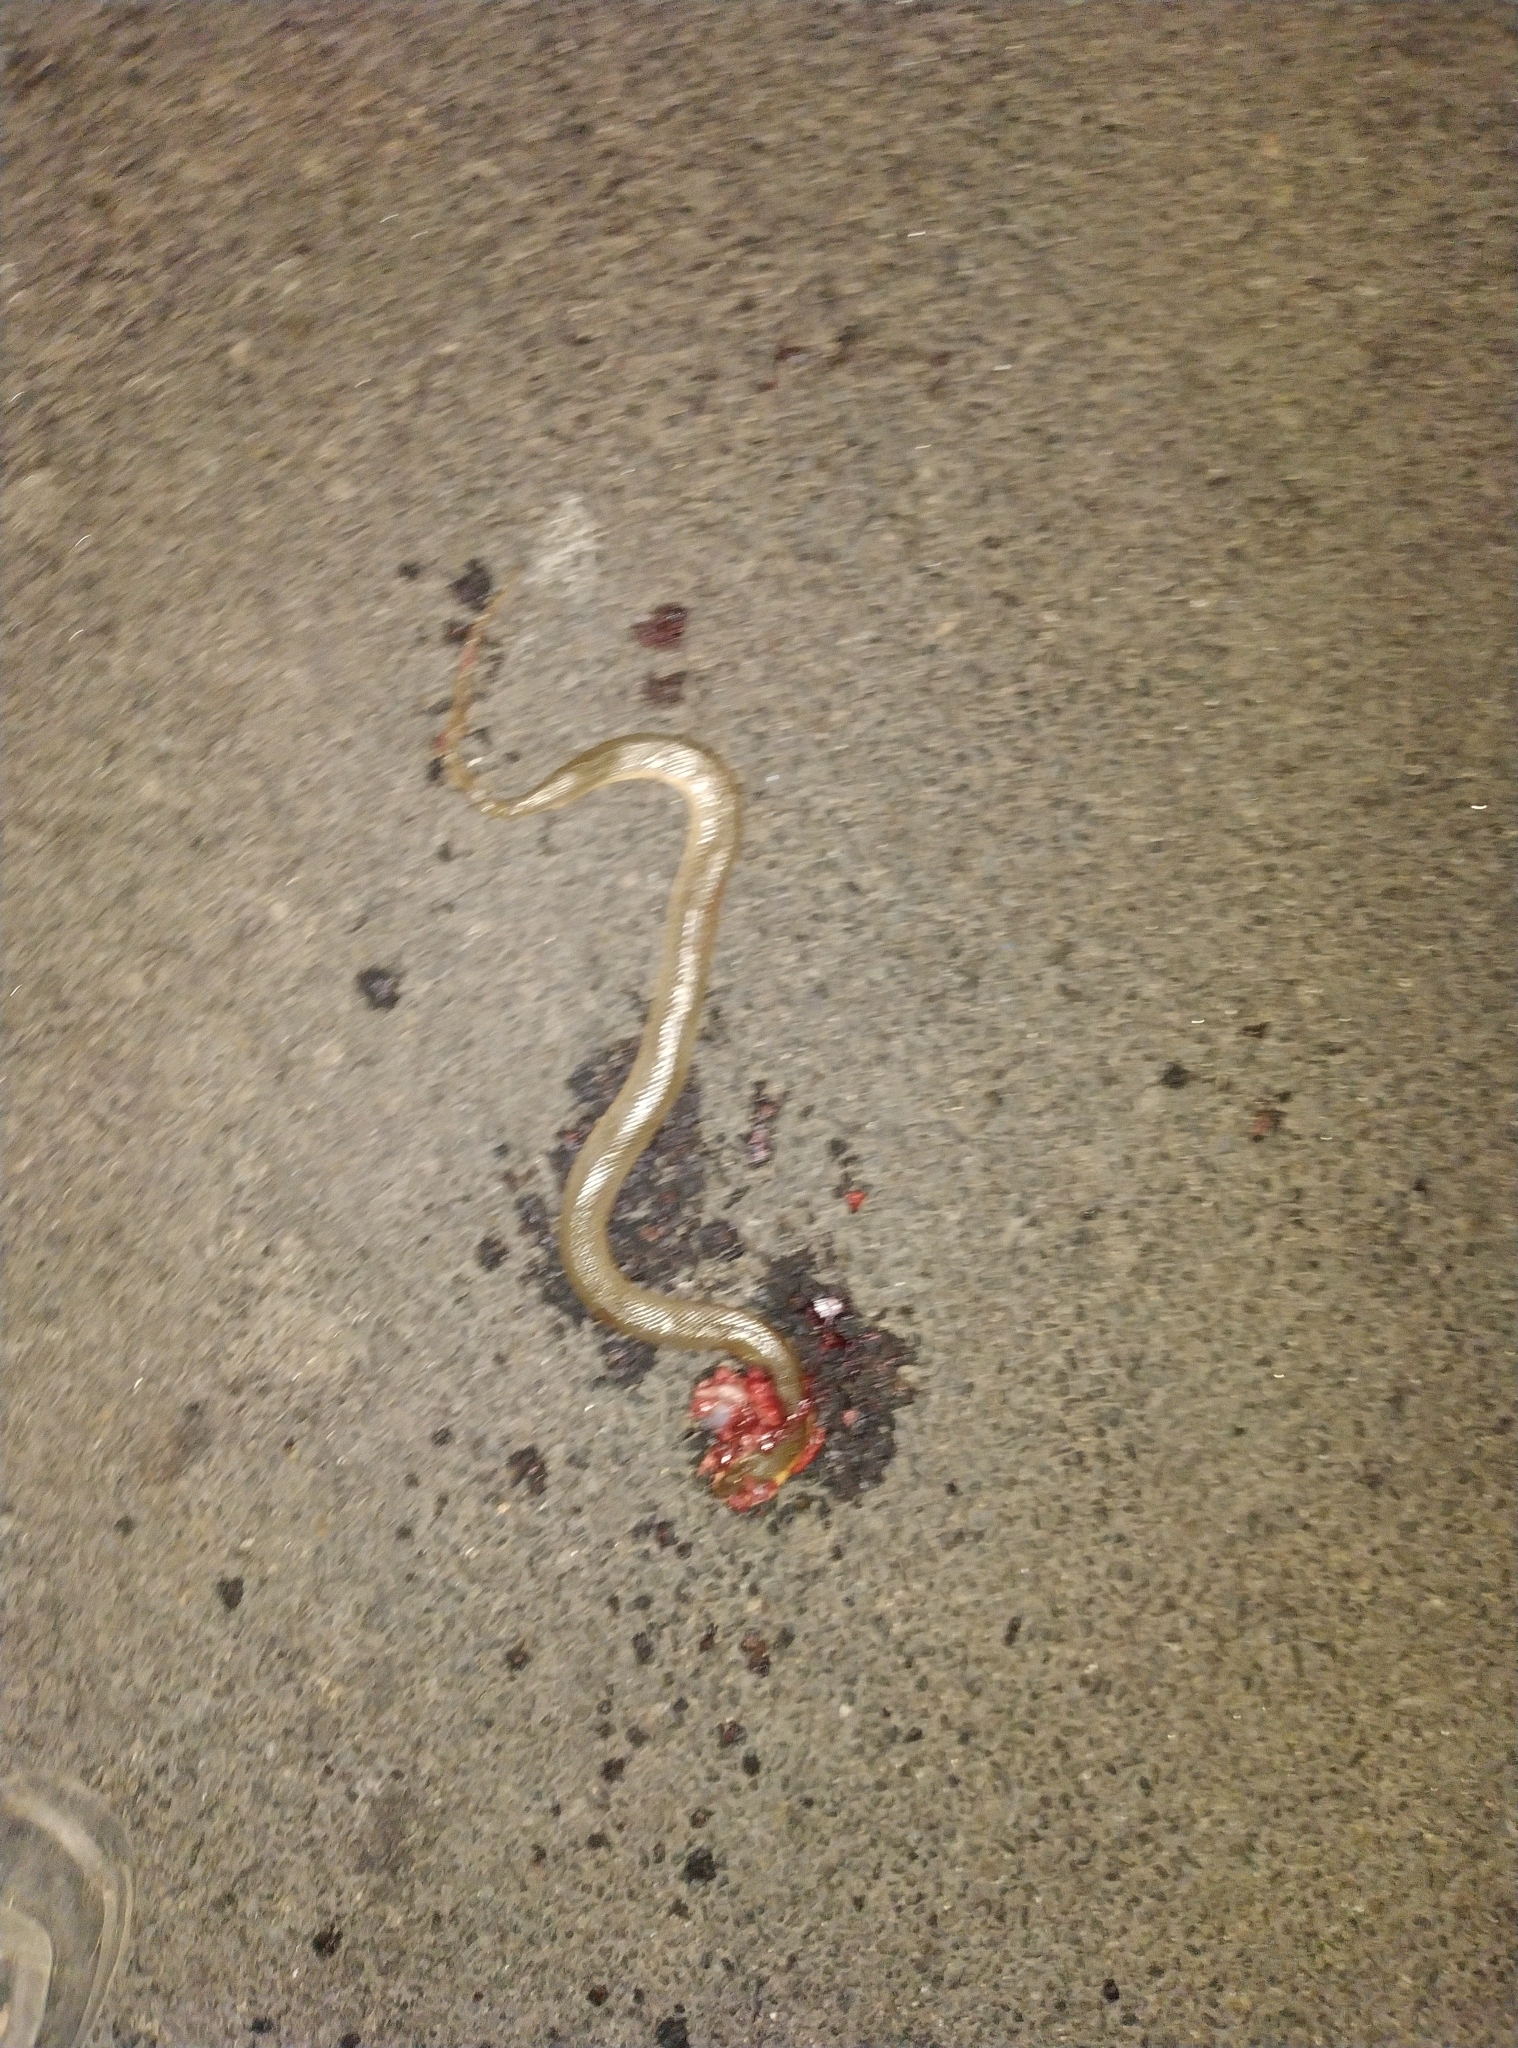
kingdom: Animalia
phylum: Chordata
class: Squamata
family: Colubridae
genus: Atretium
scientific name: Atretium schistosum
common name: Olive keelback wart snake
